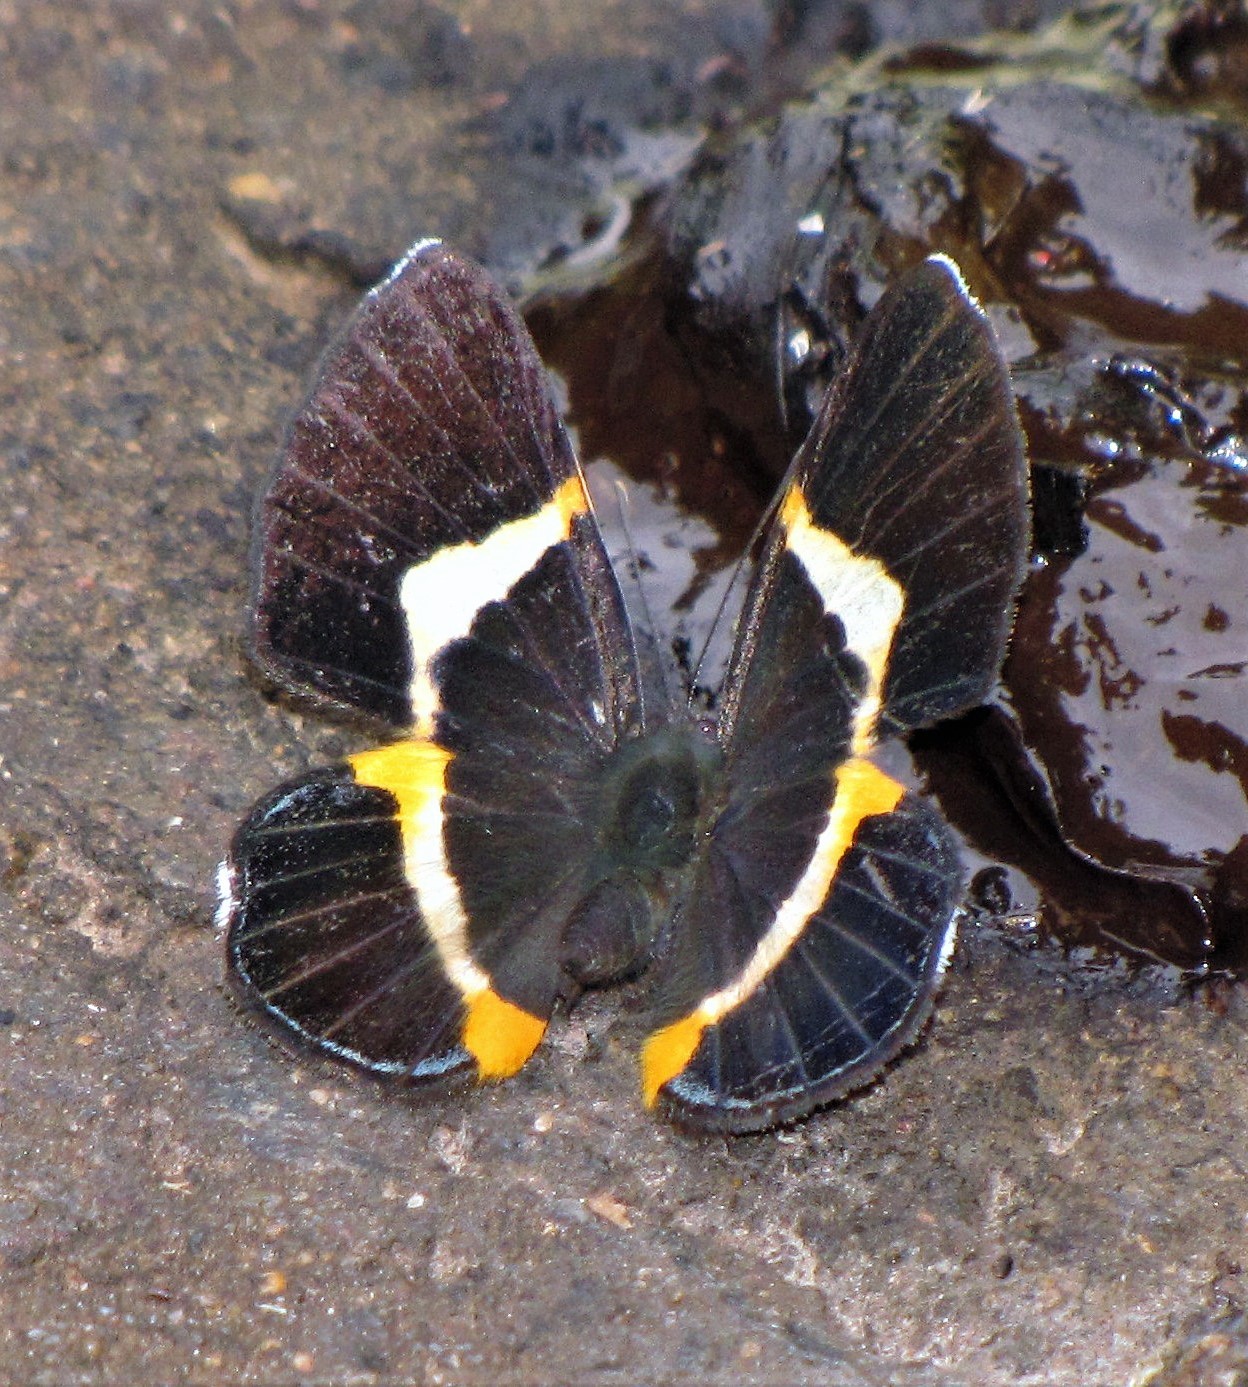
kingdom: Animalia
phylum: Arthropoda
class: Insecta
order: Lepidoptera
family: Riodinidae
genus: Notheme
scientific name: Notheme eumeus
